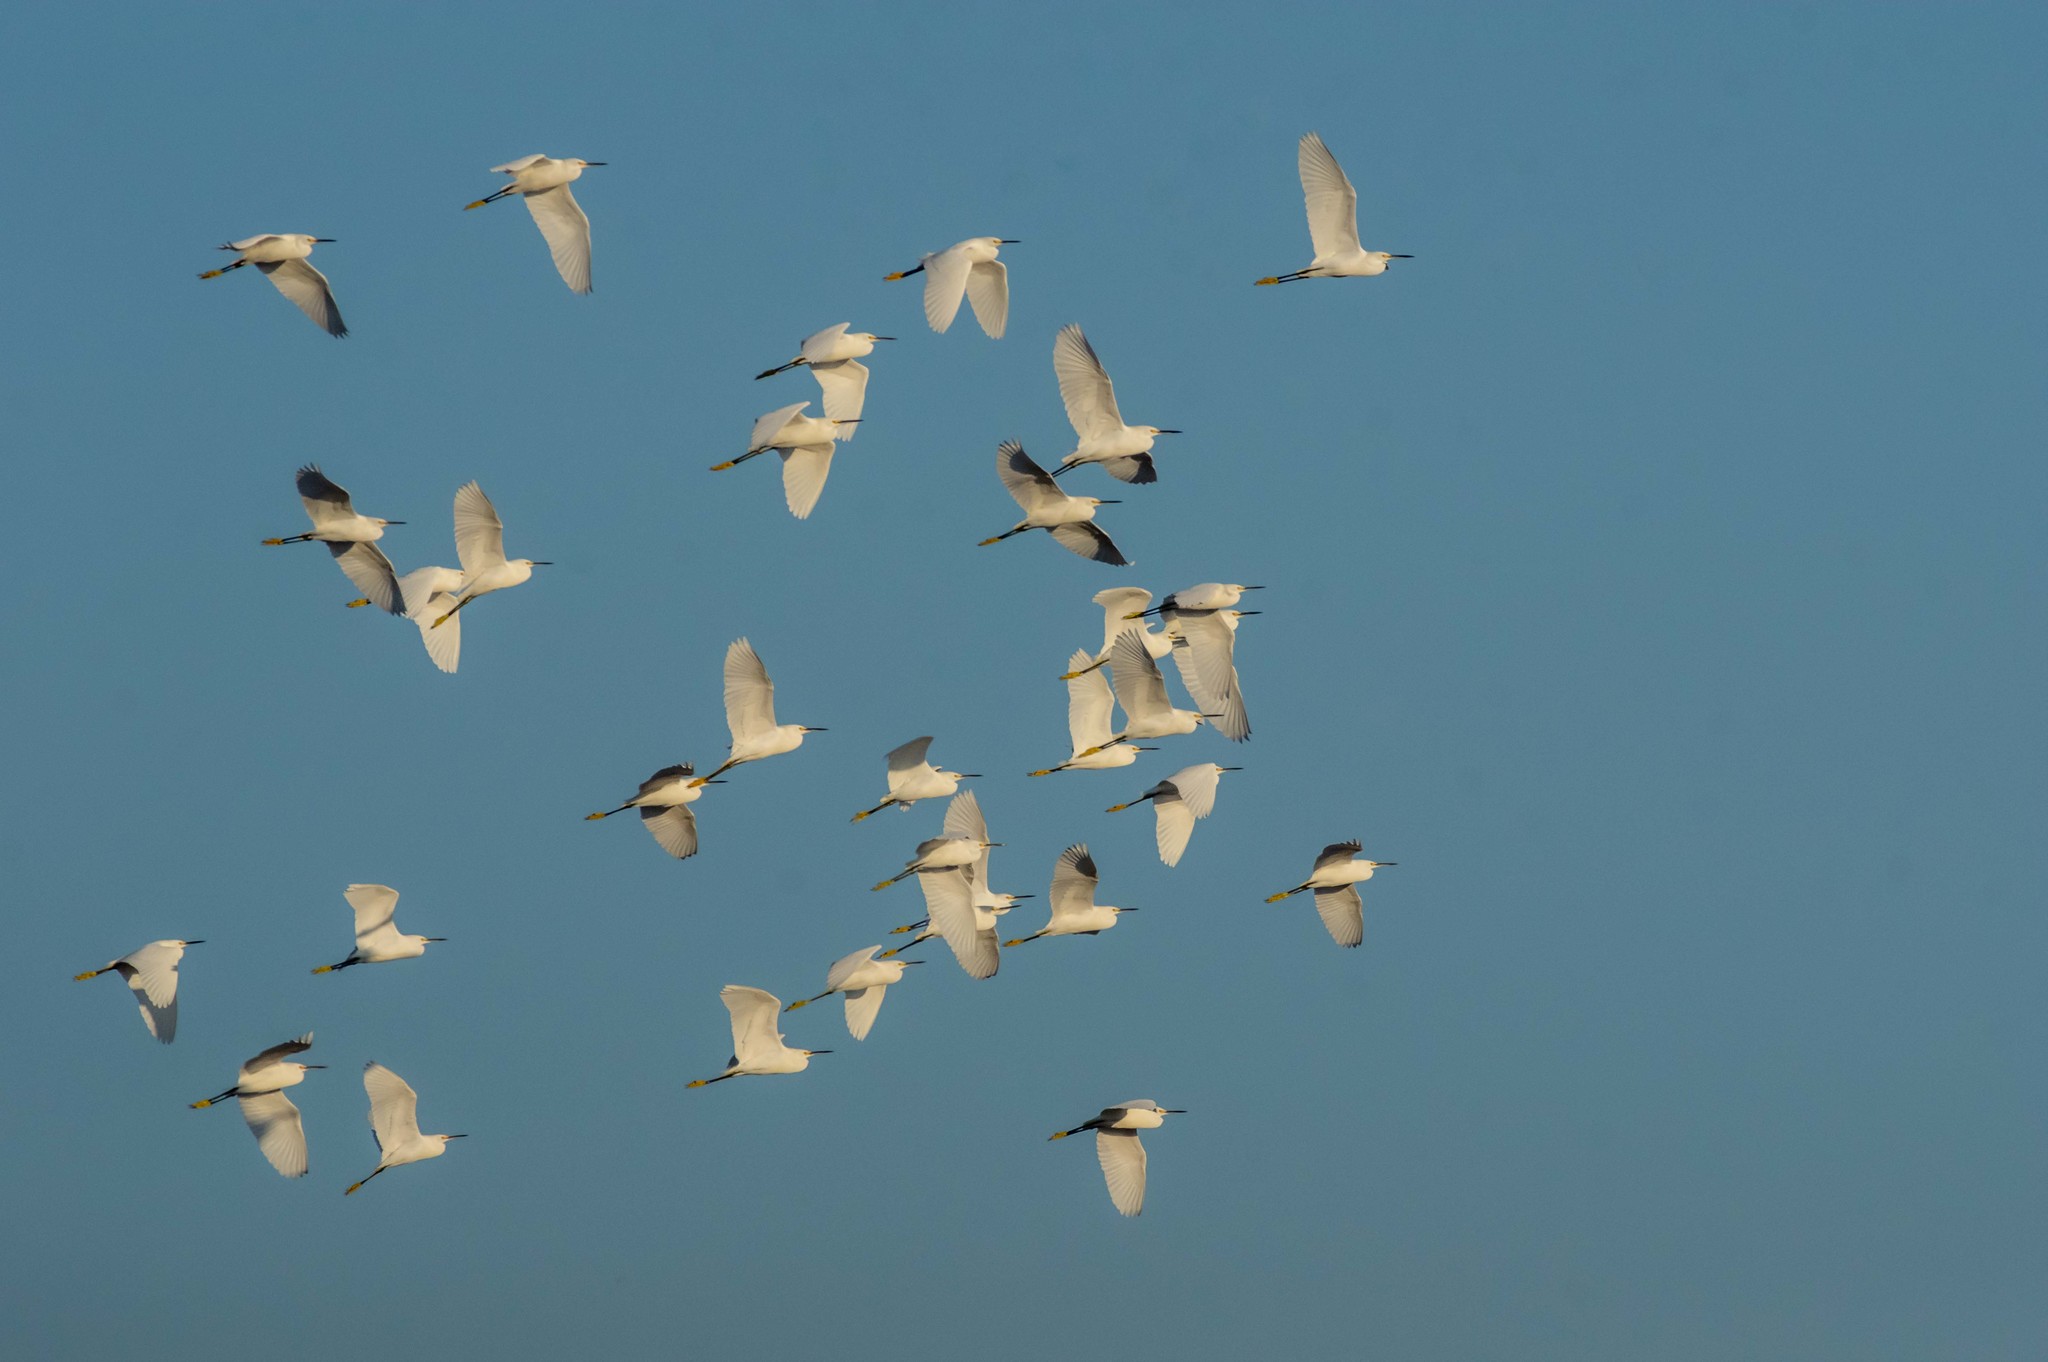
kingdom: Animalia
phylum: Chordata
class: Aves
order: Pelecaniformes
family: Ardeidae
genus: Egretta
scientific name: Egretta thula
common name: Snowy egret
